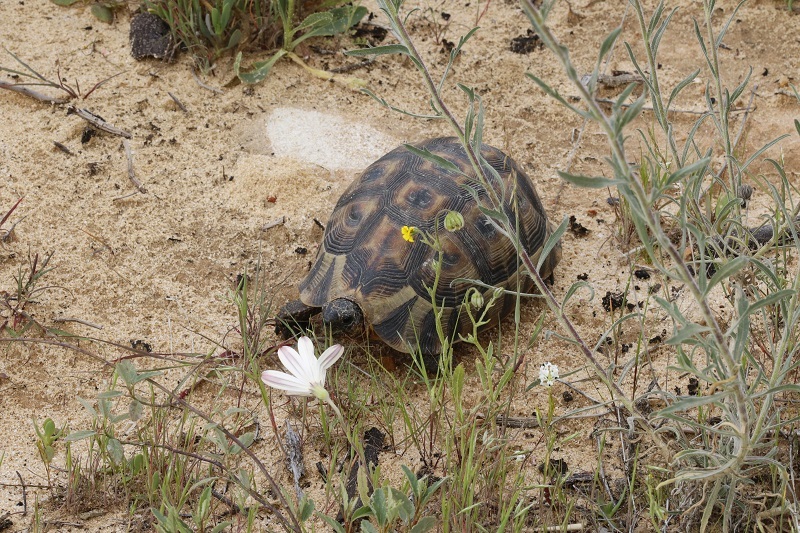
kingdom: Animalia
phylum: Chordata
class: Testudines
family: Testudinidae
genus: Chersina
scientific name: Chersina angulata
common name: South african bowsprit tortoise
